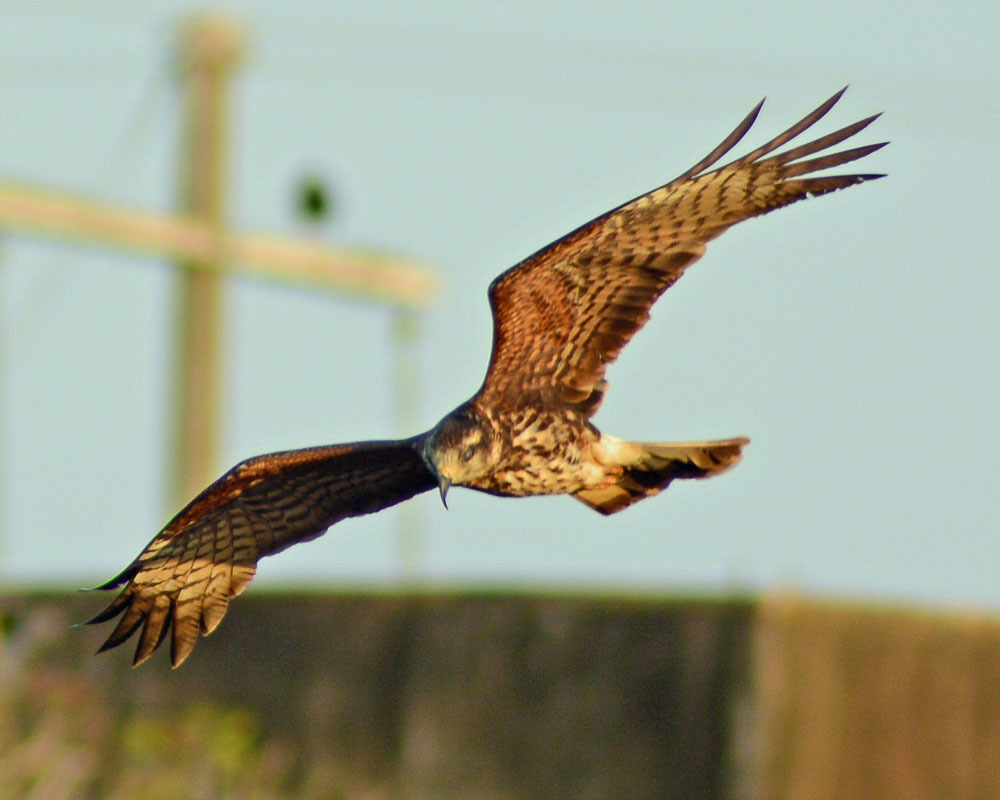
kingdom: Animalia
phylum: Chordata
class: Aves
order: Accipitriformes
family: Accipitridae
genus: Rostrhamus
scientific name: Rostrhamus sociabilis
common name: Snail kite
